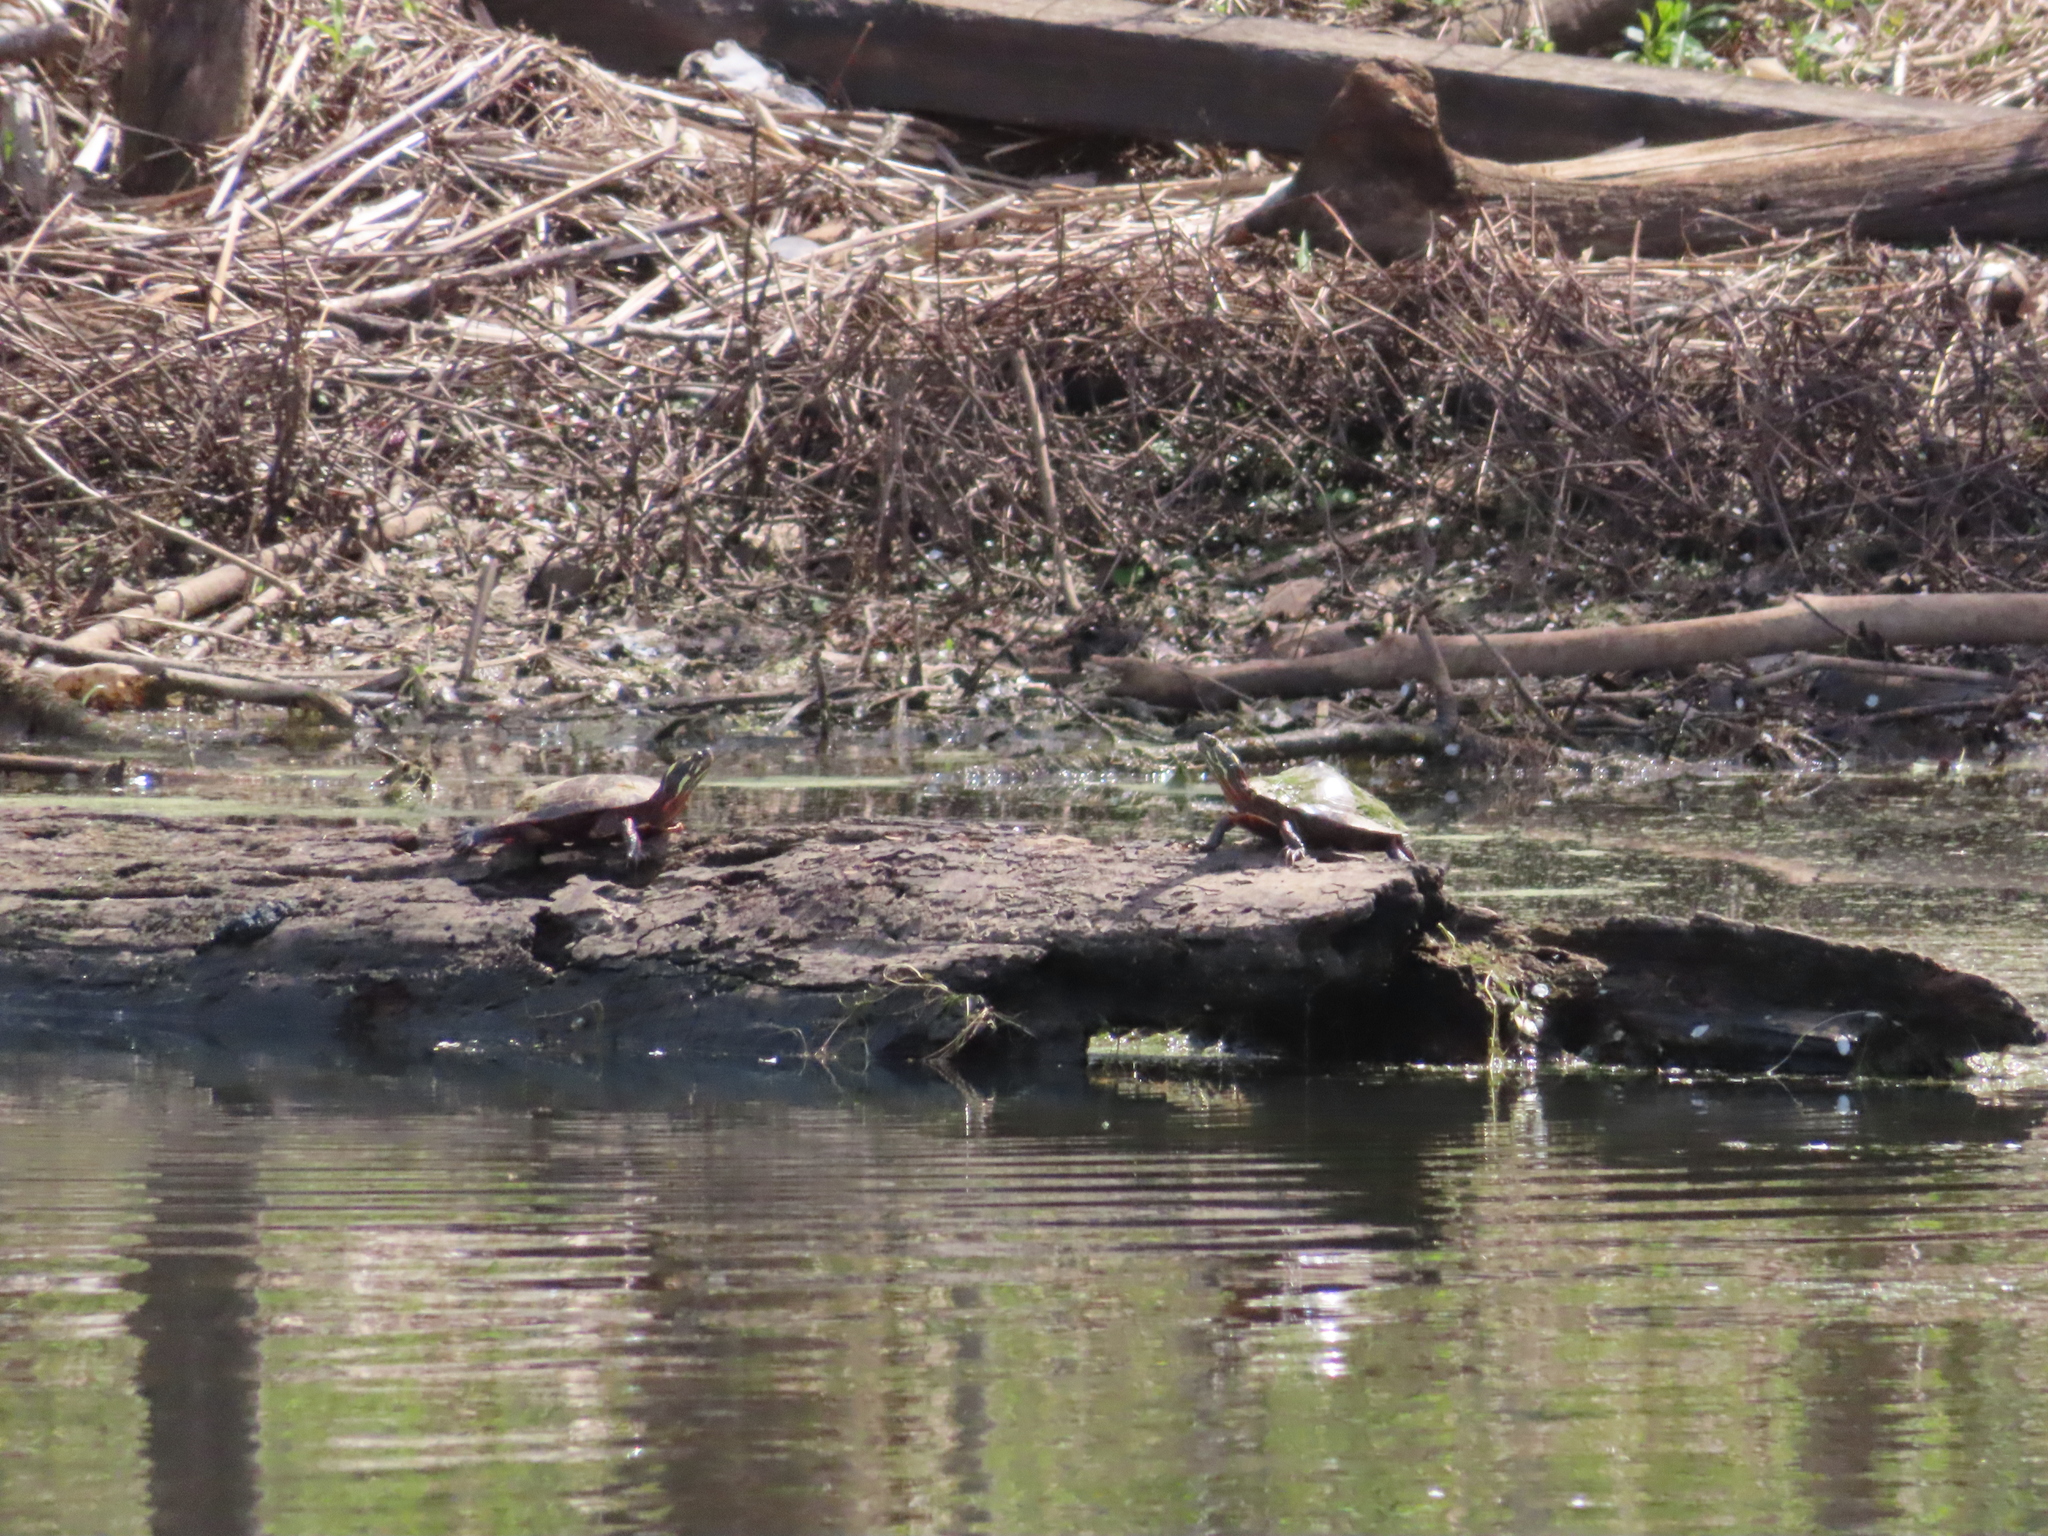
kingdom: Animalia
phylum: Chordata
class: Testudines
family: Emydidae
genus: Chrysemys
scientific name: Chrysemys picta
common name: Painted turtle
